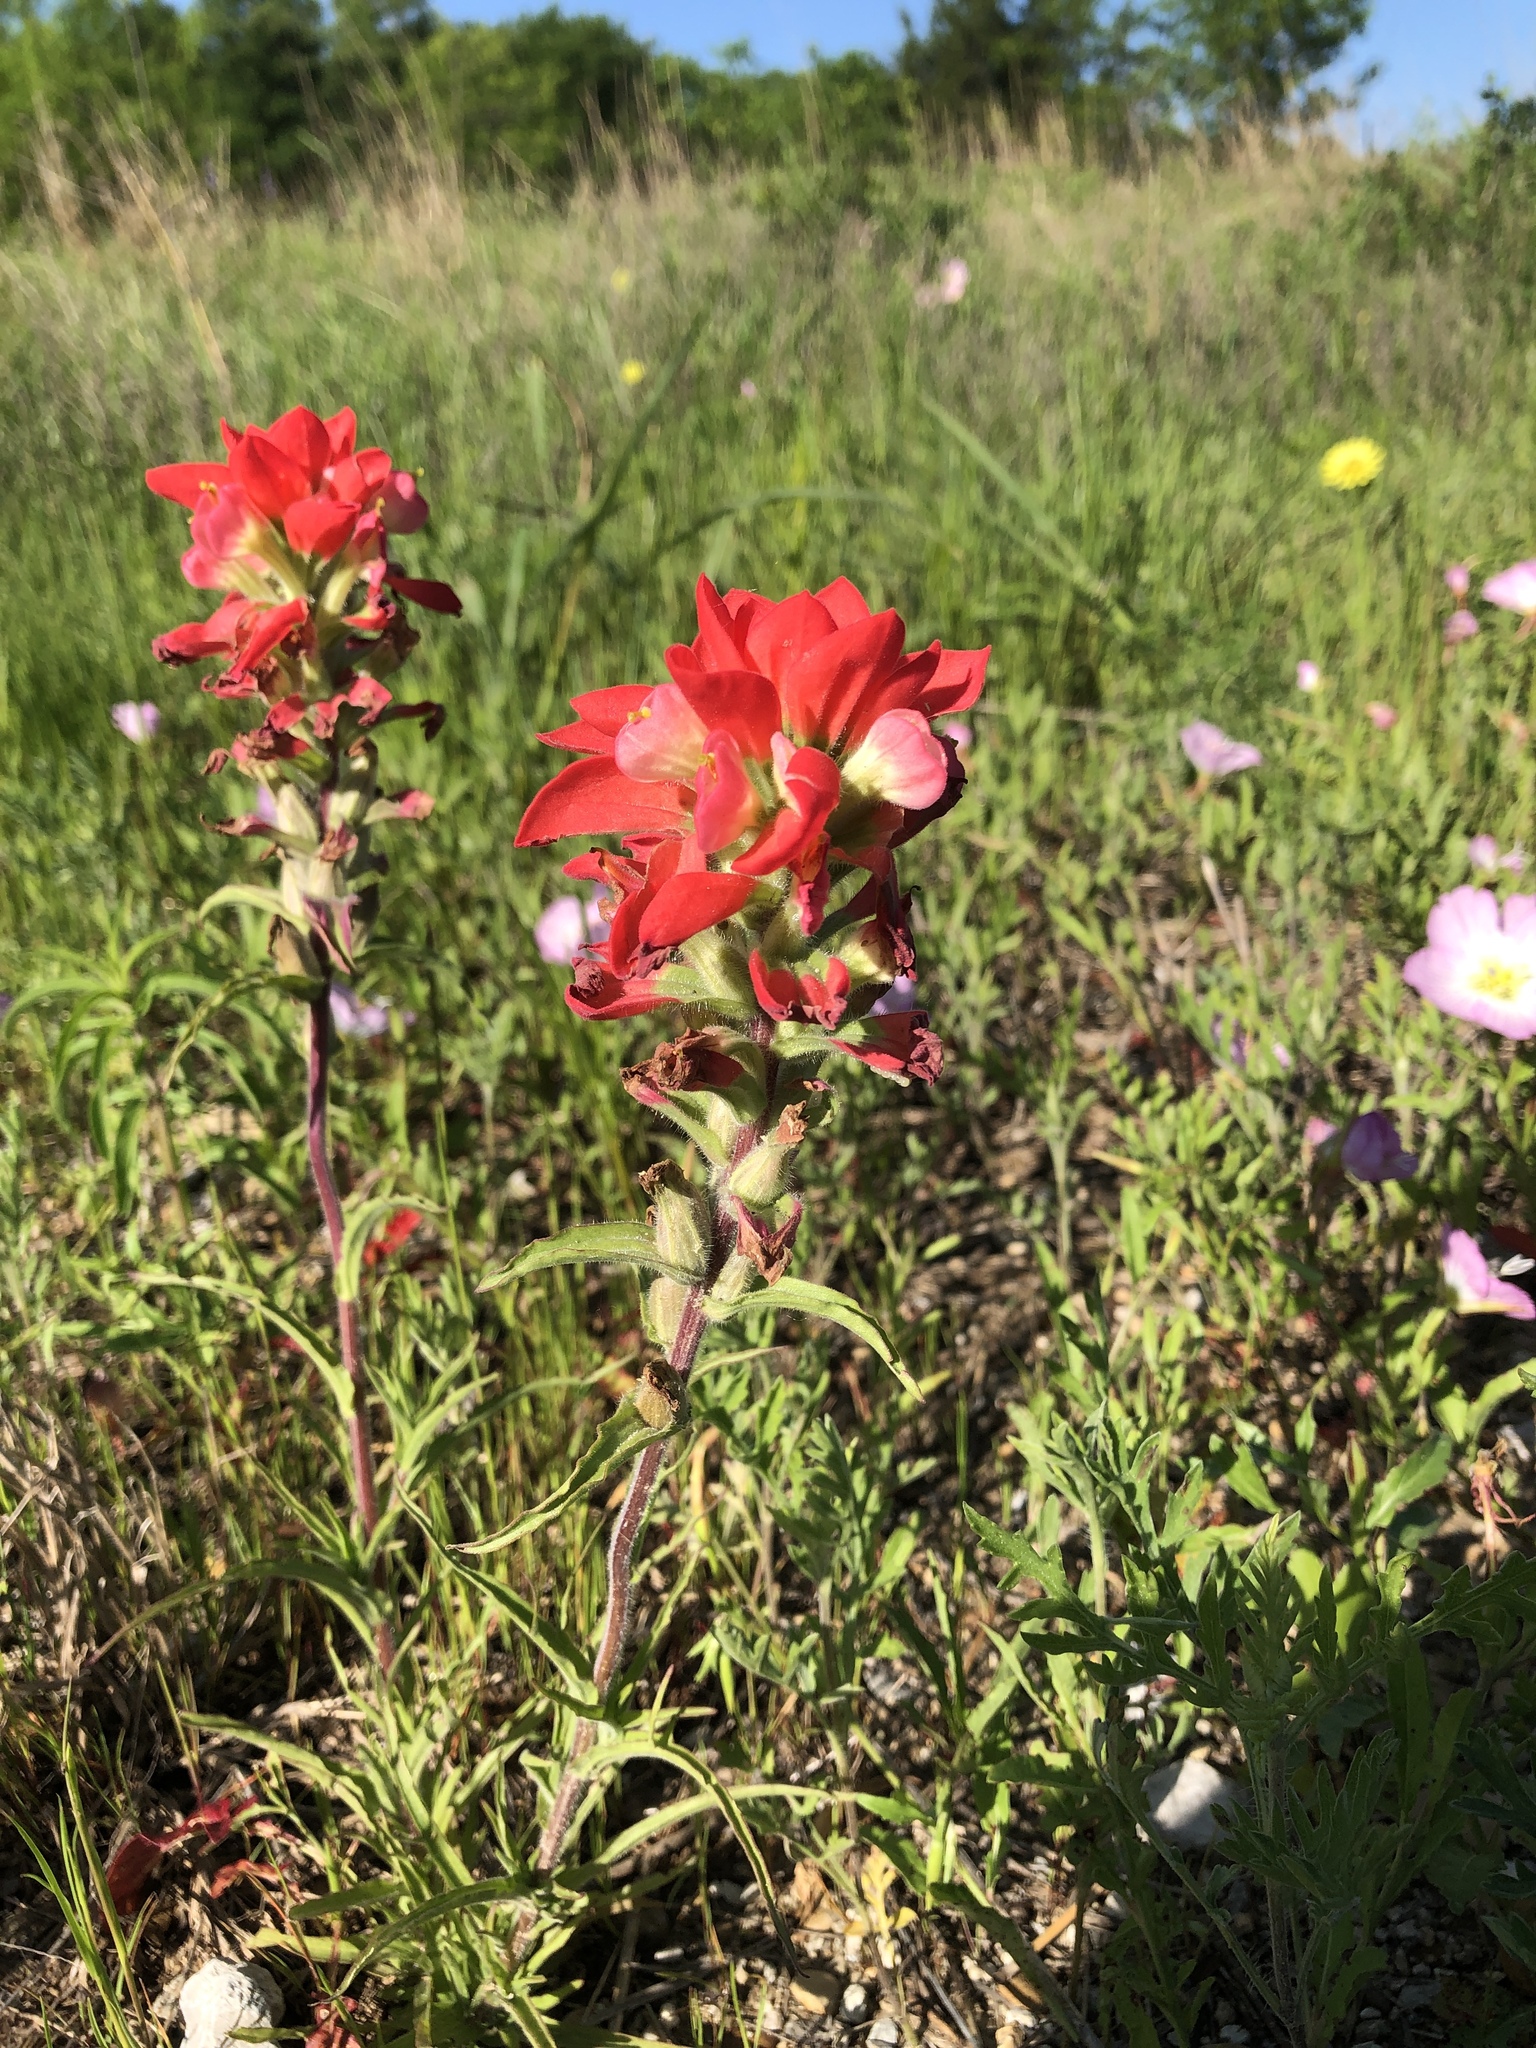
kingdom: Plantae
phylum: Tracheophyta
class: Magnoliopsida
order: Lamiales
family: Orobanchaceae
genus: Castilleja
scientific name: Castilleja indivisa
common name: Texas paintbrush
